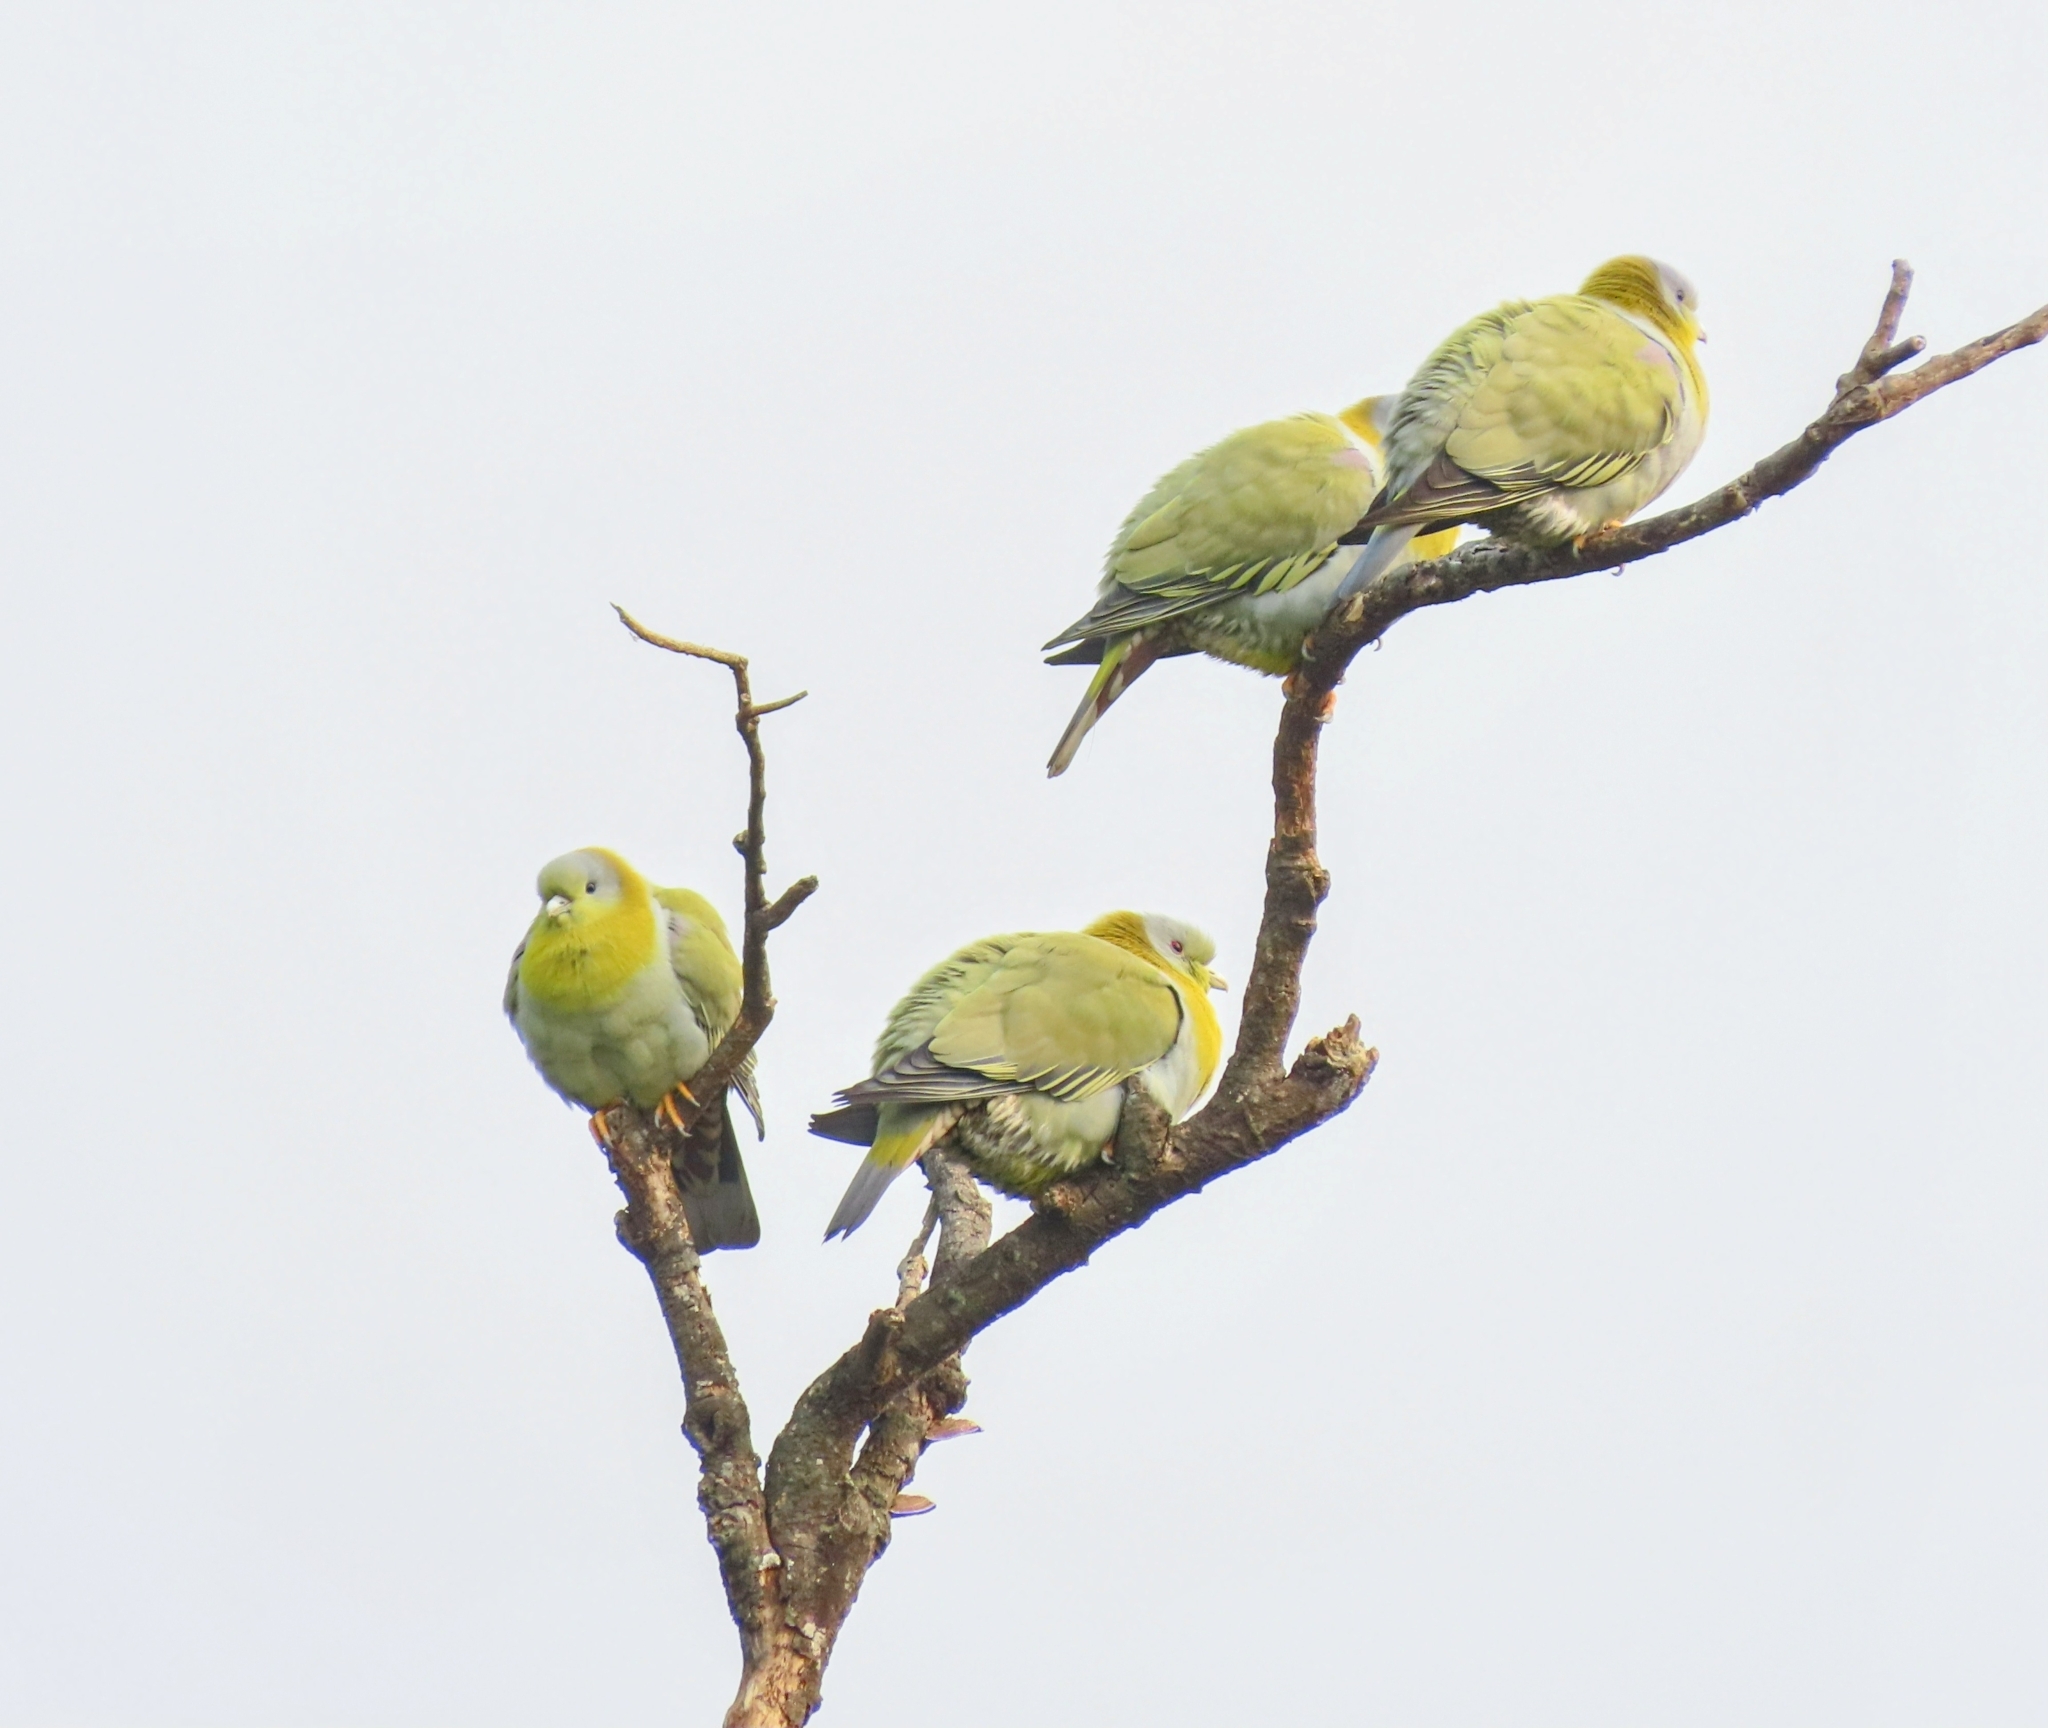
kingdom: Animalia
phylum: Chordata
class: Aves
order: Columbiformes
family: Columbidae
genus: Treron
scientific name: Treron phoenicopterus
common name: Yellow-footed green pigeon
